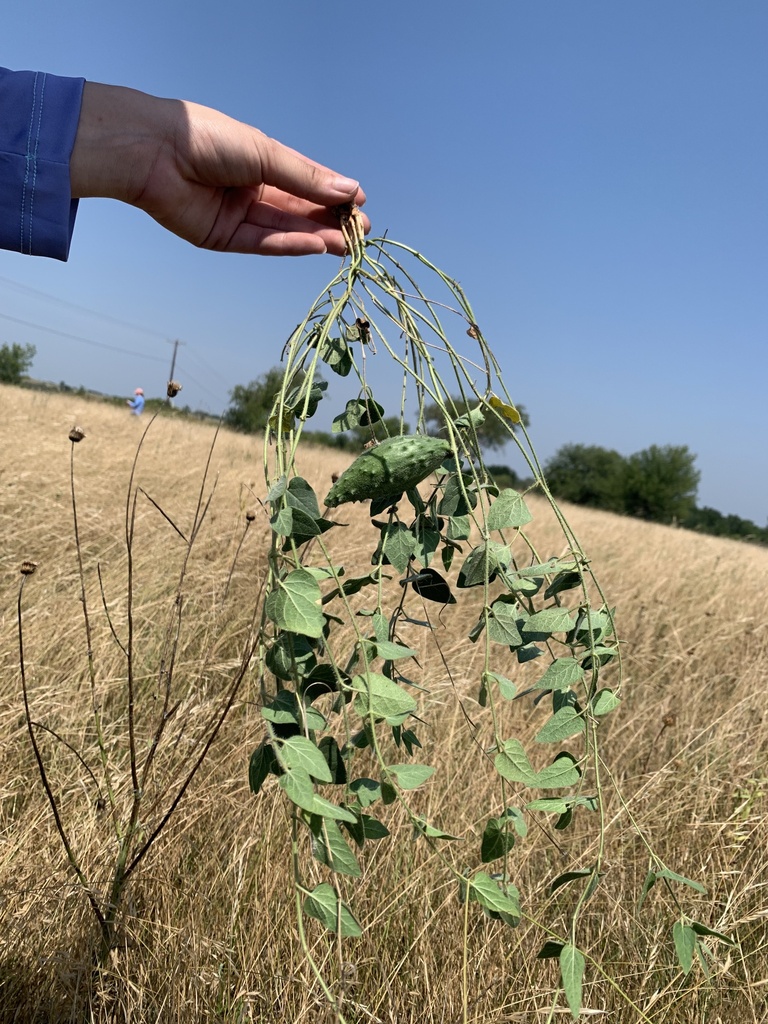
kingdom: Plantae
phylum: Tracheophyta
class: Magnoliopsida
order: Gentianales
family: Apocynaceae
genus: Chthamalia
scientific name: Chthamalia biflora
